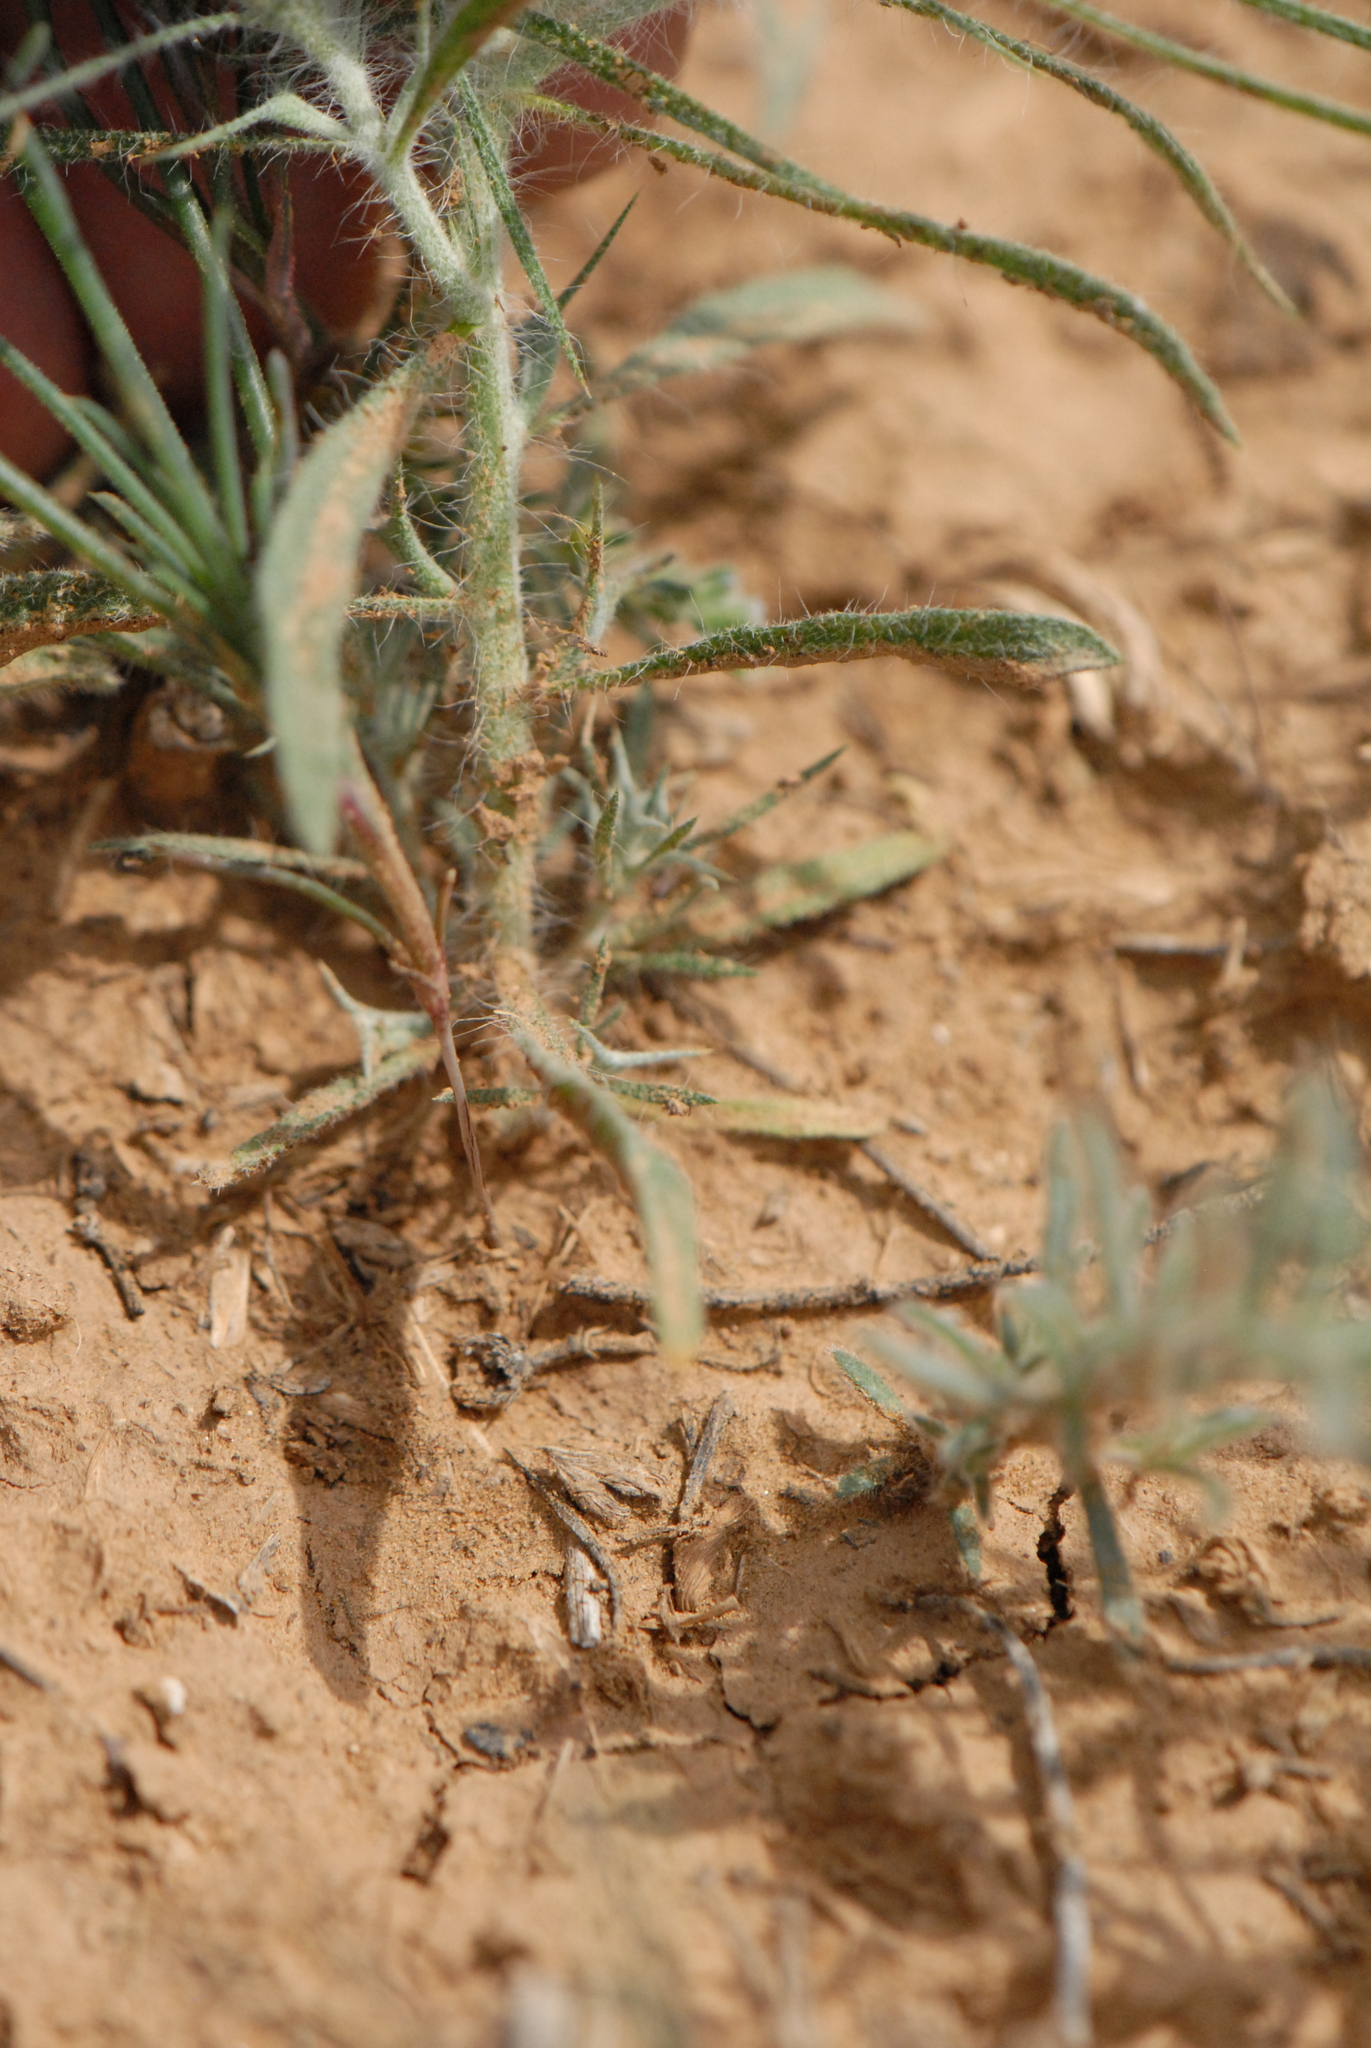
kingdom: Plantae
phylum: Tracheophyta
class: Magnoliopsida
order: Caryophyllales
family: Amaranthaceae
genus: Ceratocarpus
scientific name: Ceratocarpus arenarius
